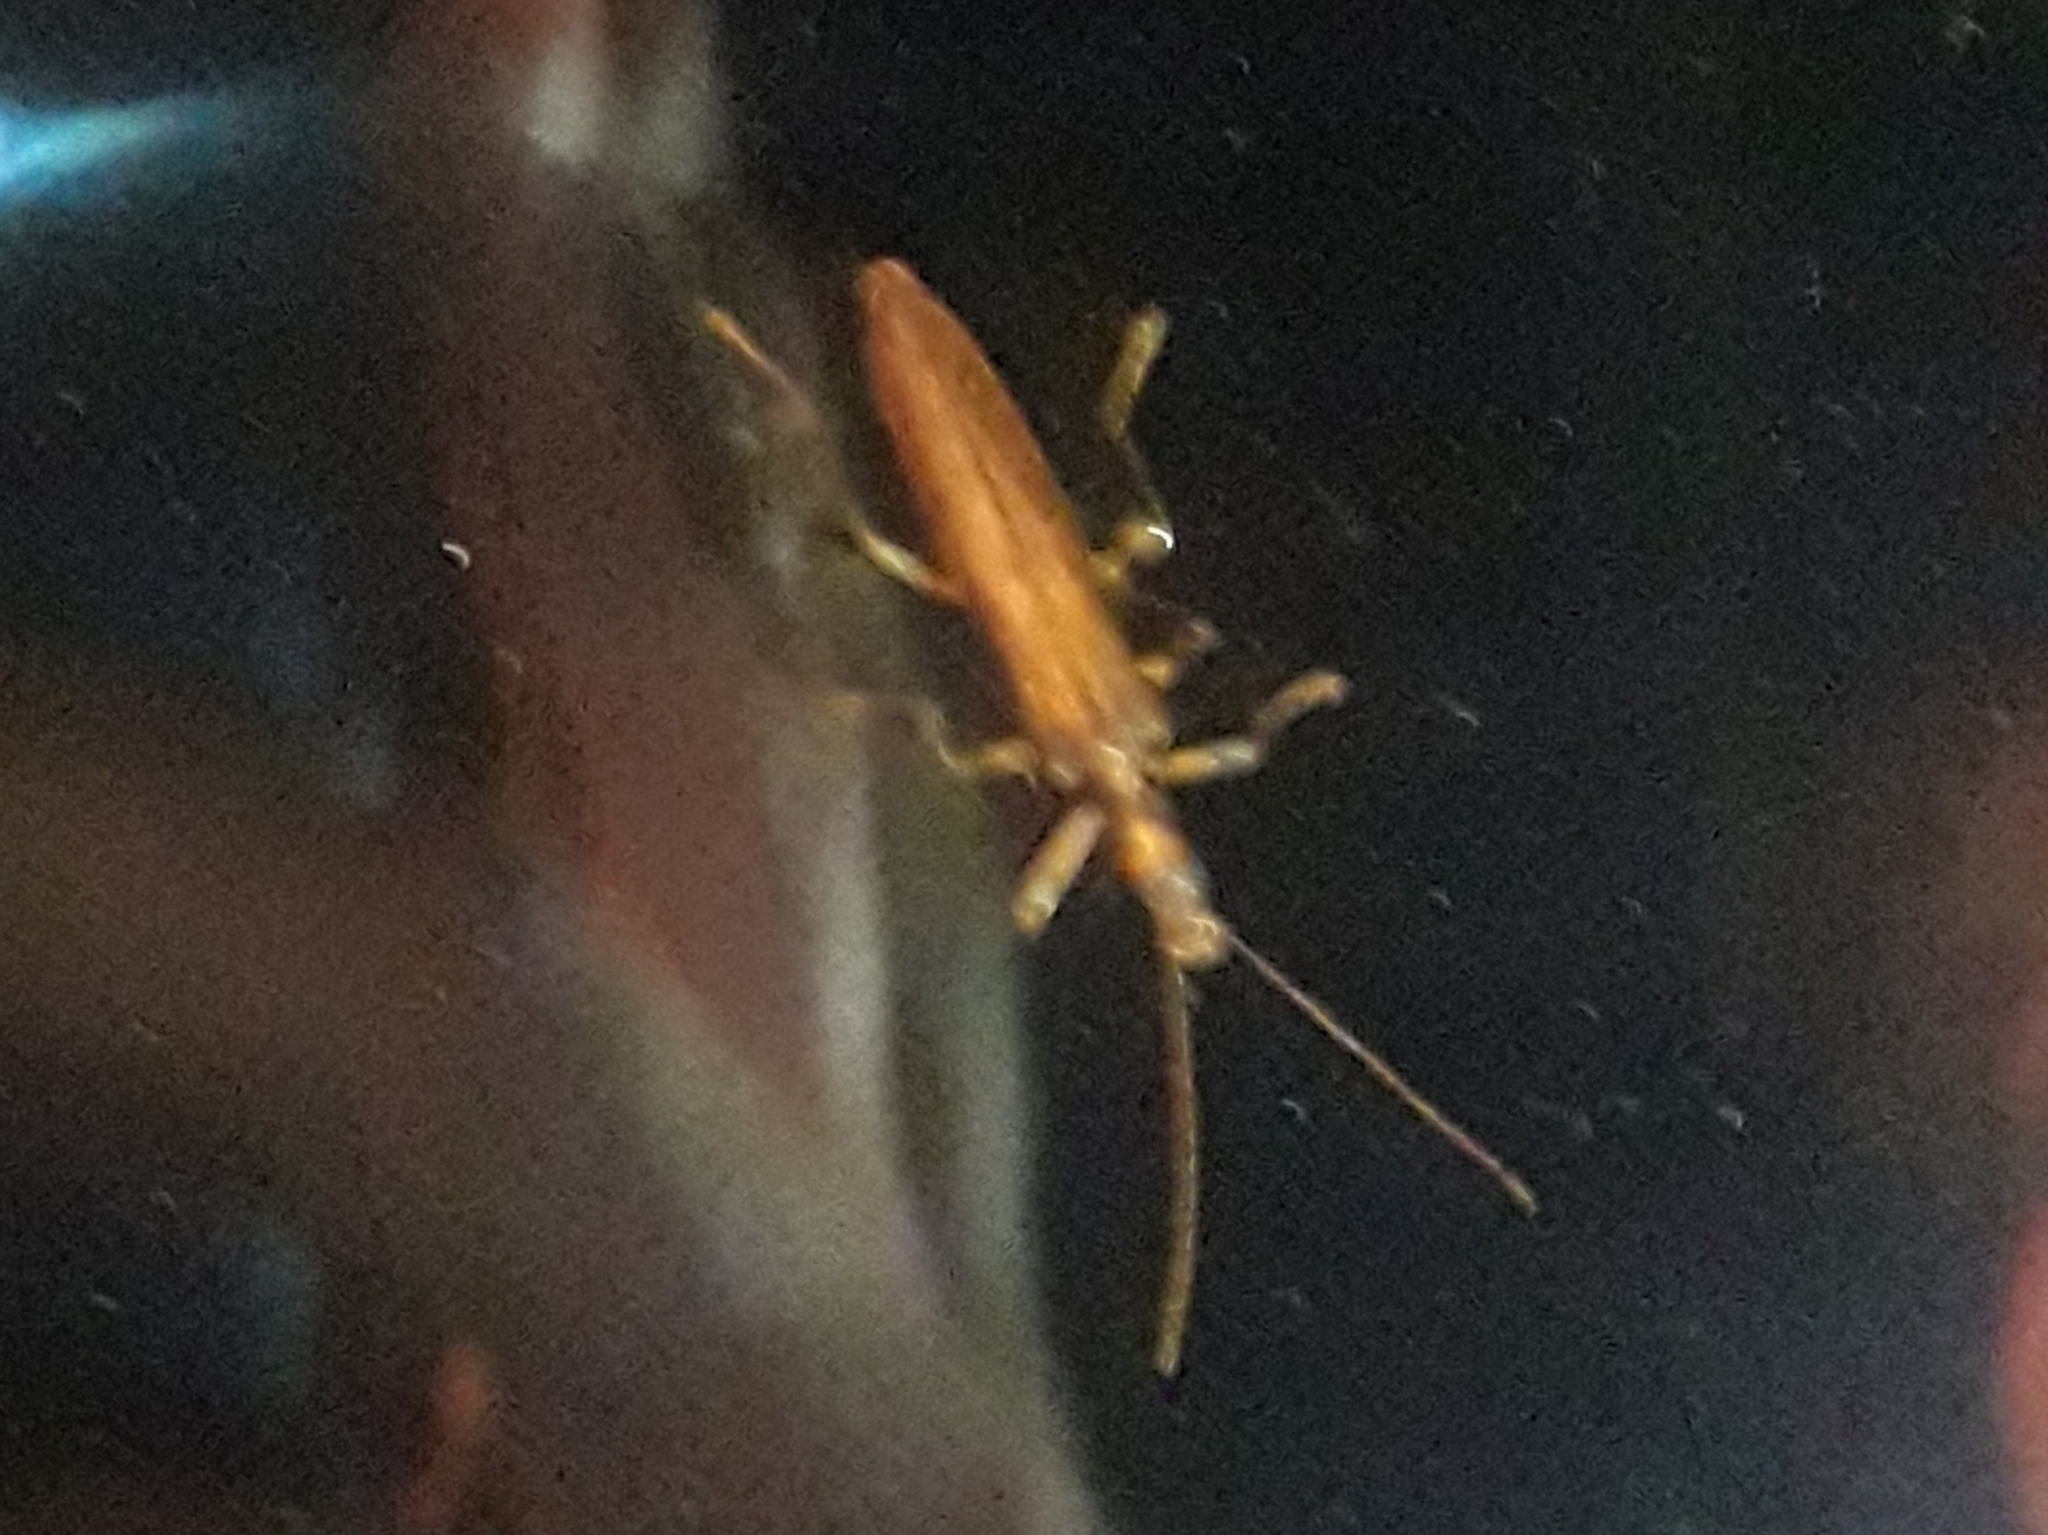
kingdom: Animalia
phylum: Arthropoda
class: Insecta
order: Coleoptera
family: Oedemeridae
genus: Oedemera
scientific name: Oedemera femoralis
